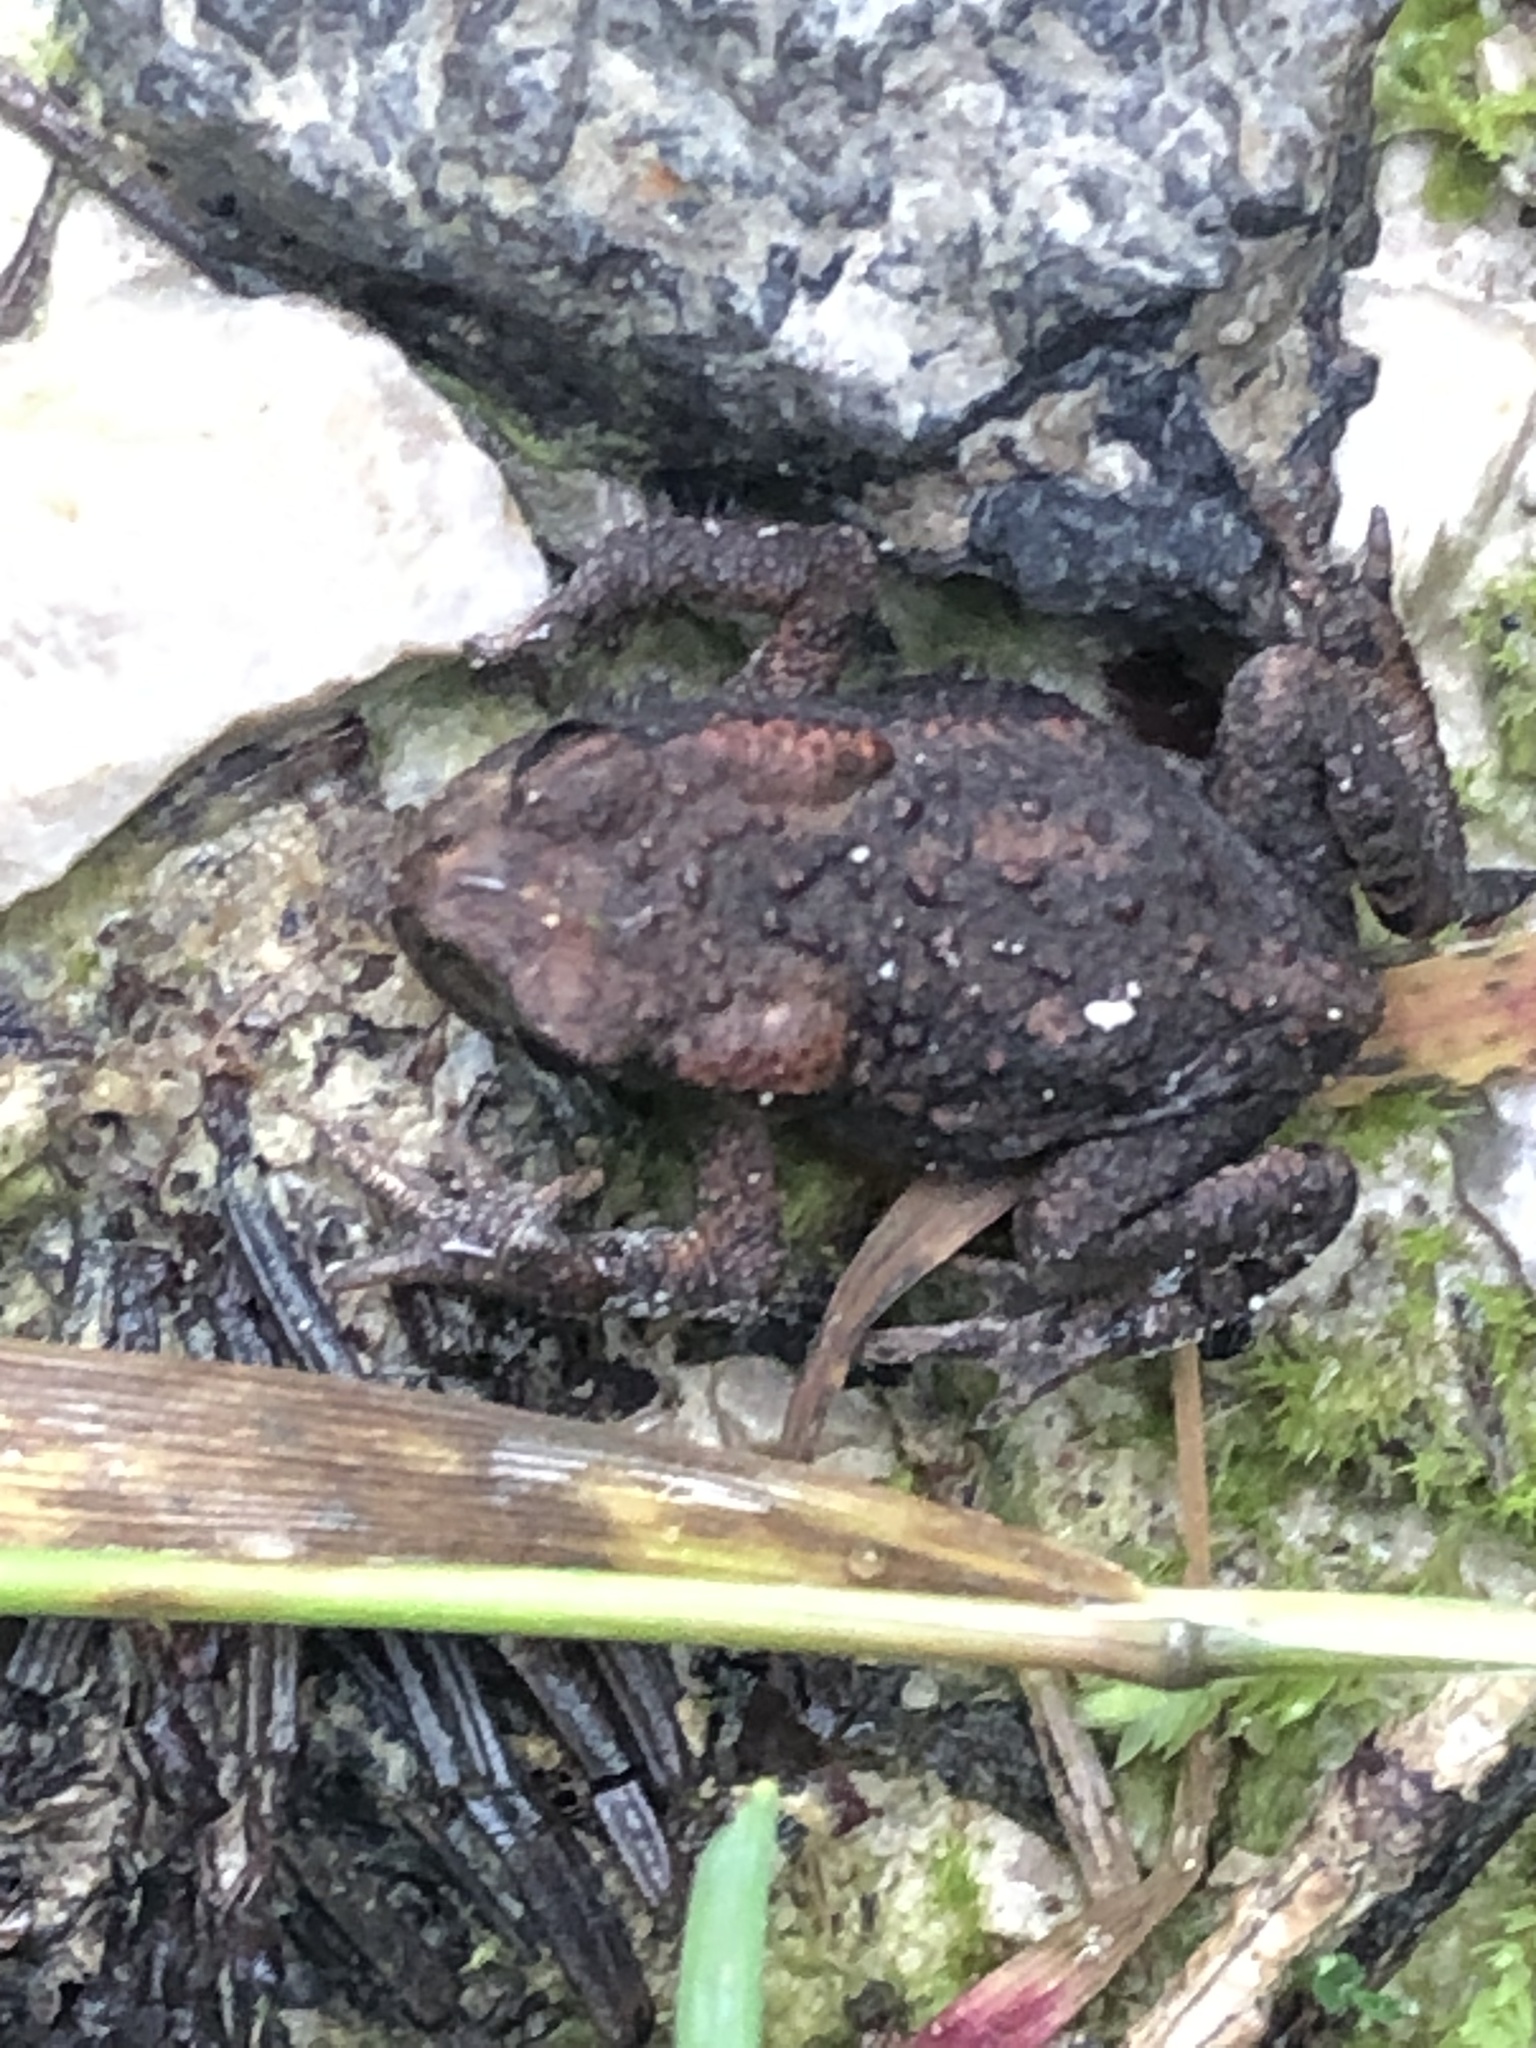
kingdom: Animalia
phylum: Chordata
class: Amphibia
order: Anura
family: Bufonidae
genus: Bufo
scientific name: Bufo bufo
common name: Common toad
